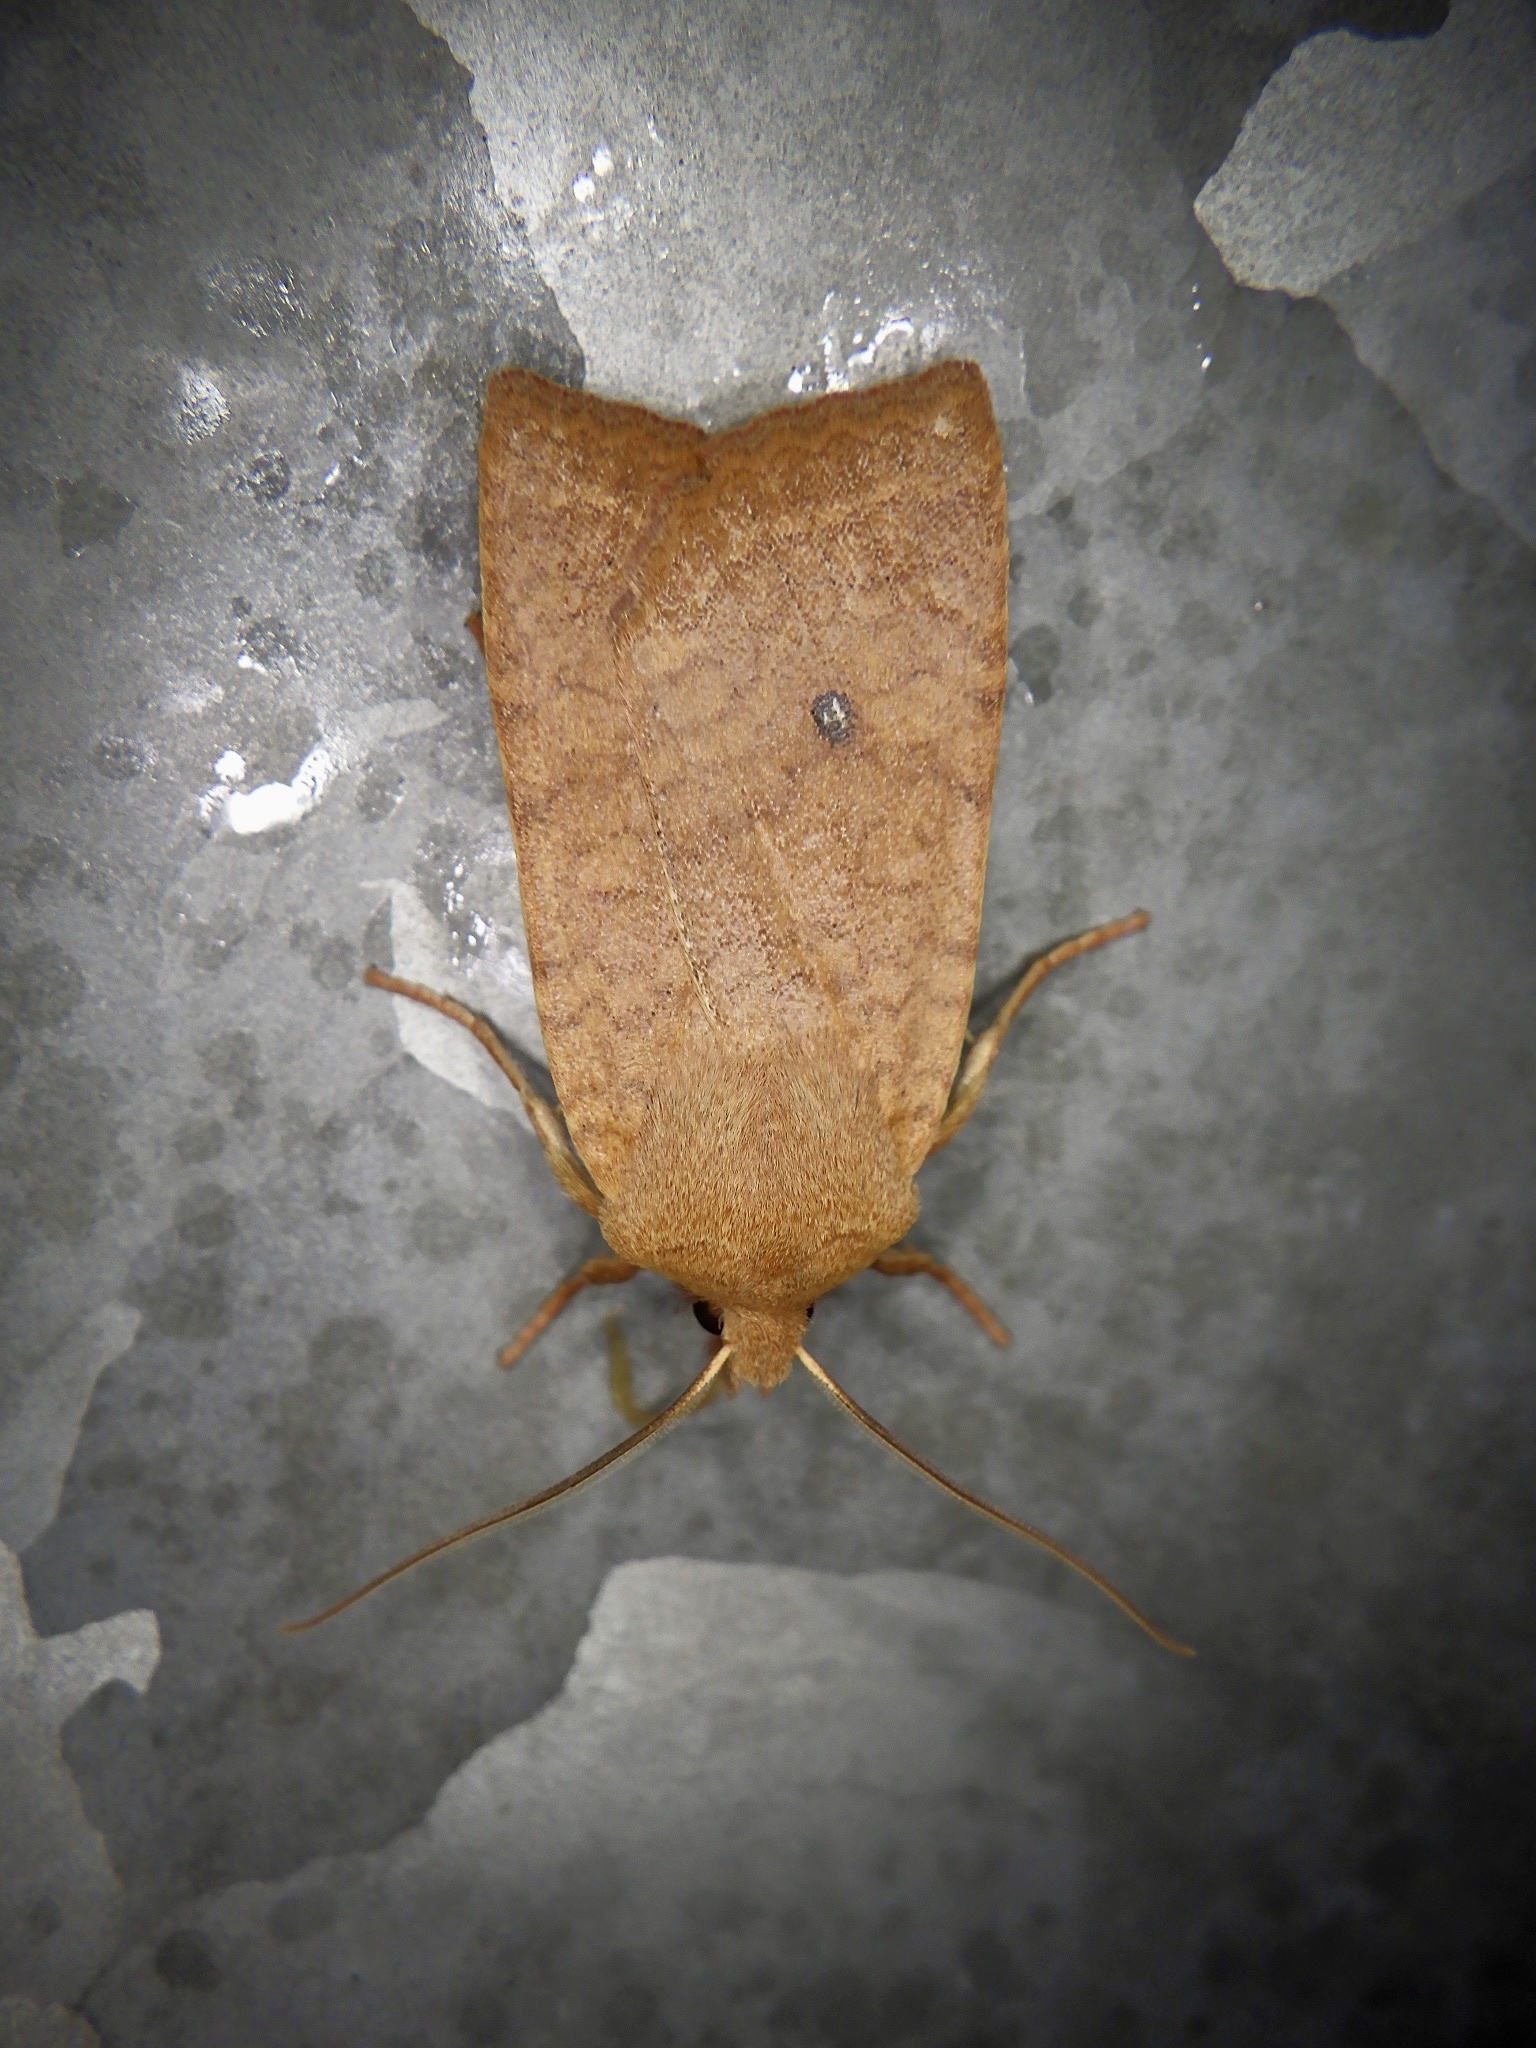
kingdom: Animalia
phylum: Arthropoda
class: Insecta
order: Lepidoptera
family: Noctuidae
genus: Conistra
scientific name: Conistra albipuncta
